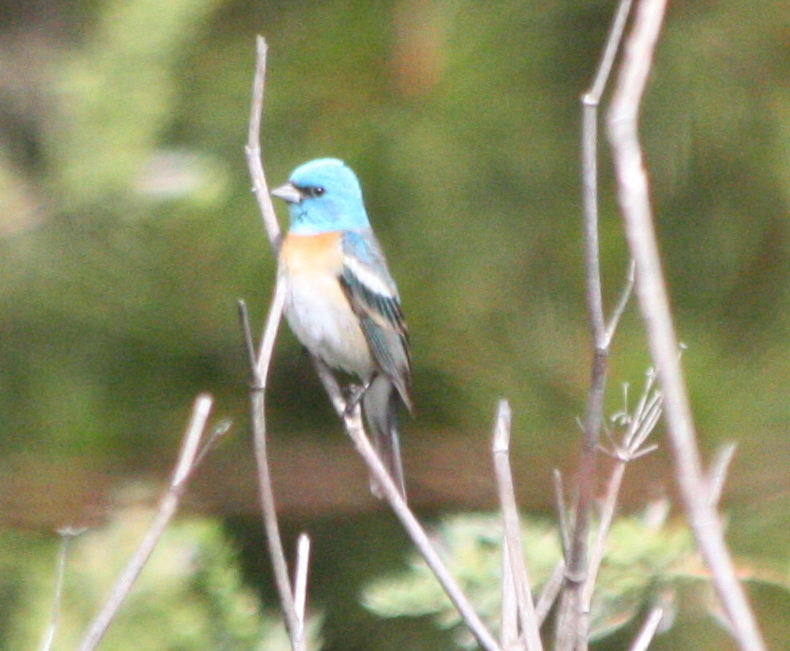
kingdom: Animalia
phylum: Chordata
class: Aves
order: Passeriformes
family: Cardinalidae
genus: Passerina
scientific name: Passerina amoena
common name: Lazuli bunting
